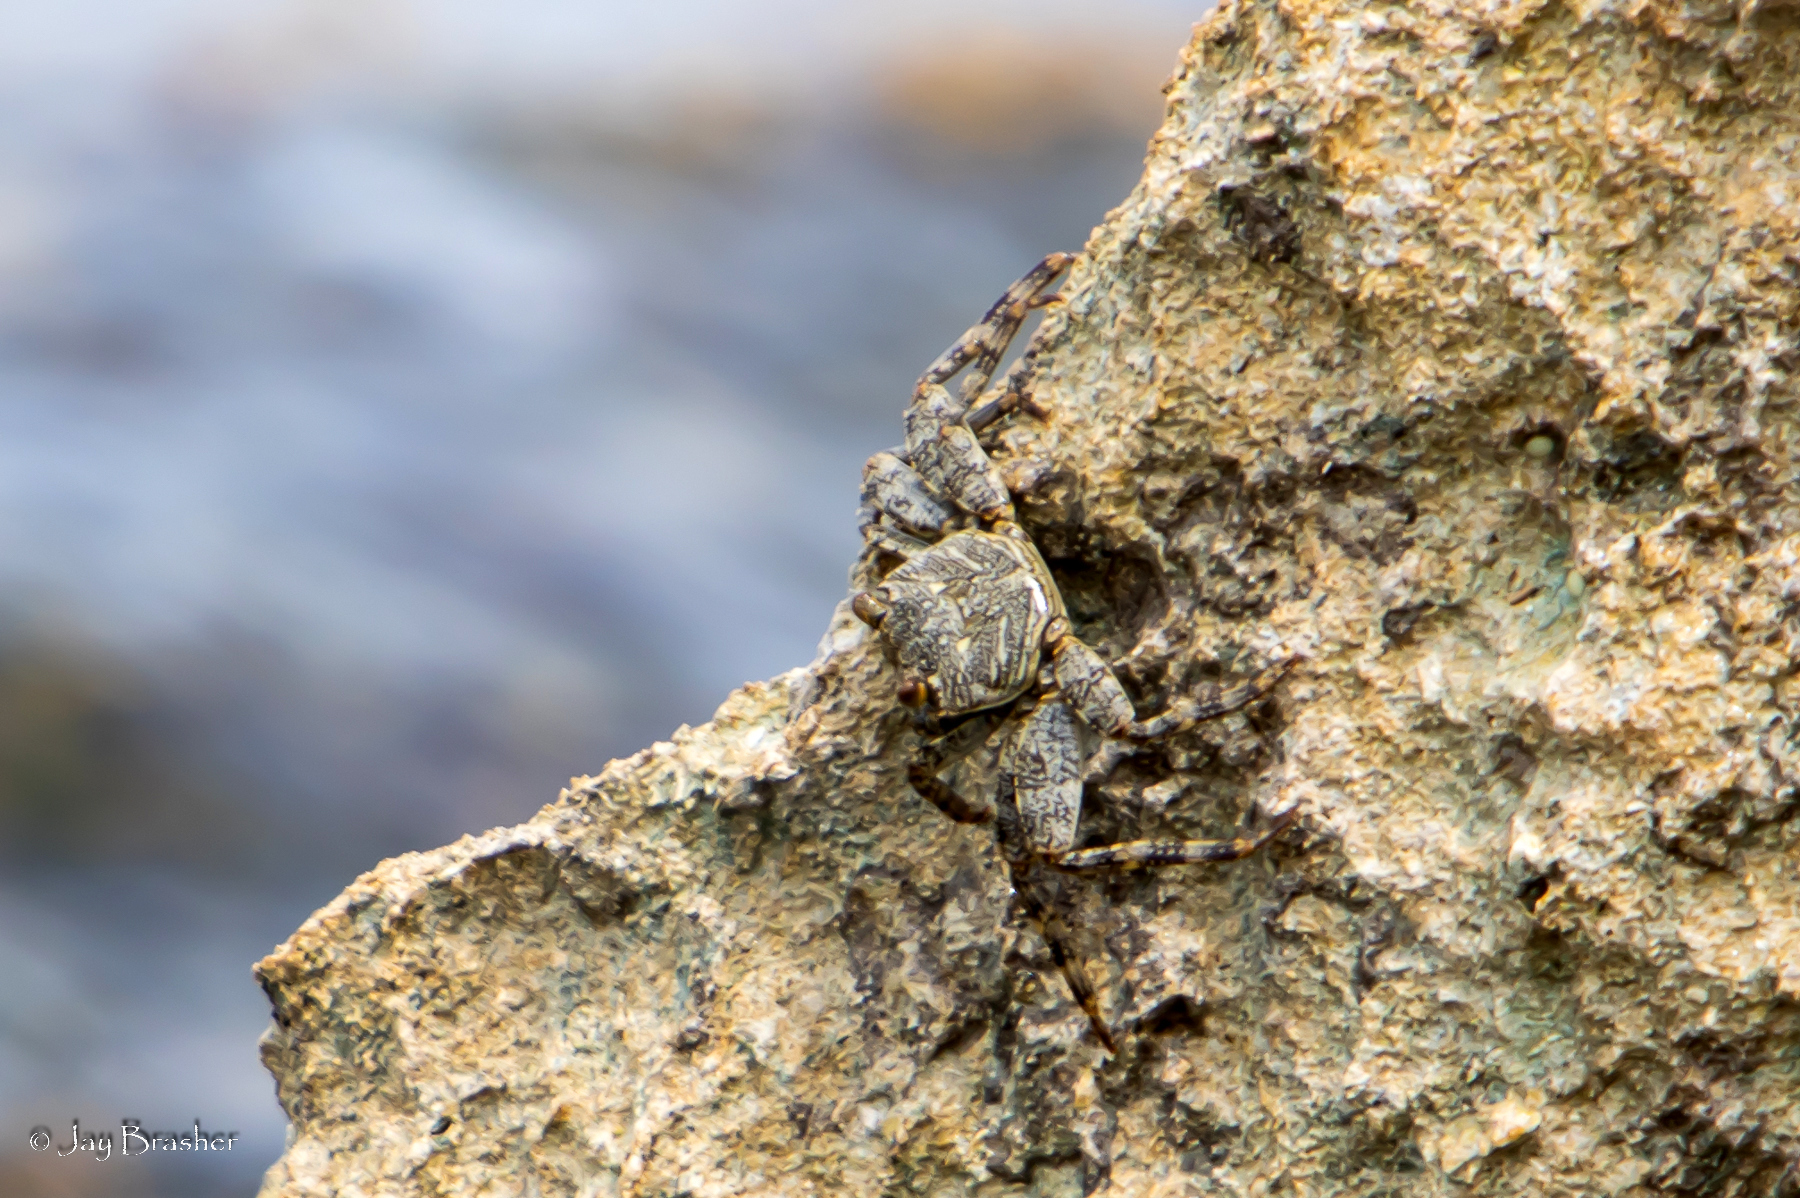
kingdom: Animalia
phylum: Arthropoda
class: Malacostraca
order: Decapoda
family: Grapsidae
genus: Grapsus
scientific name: Grapsus grapsus
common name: Sally lightfoot
